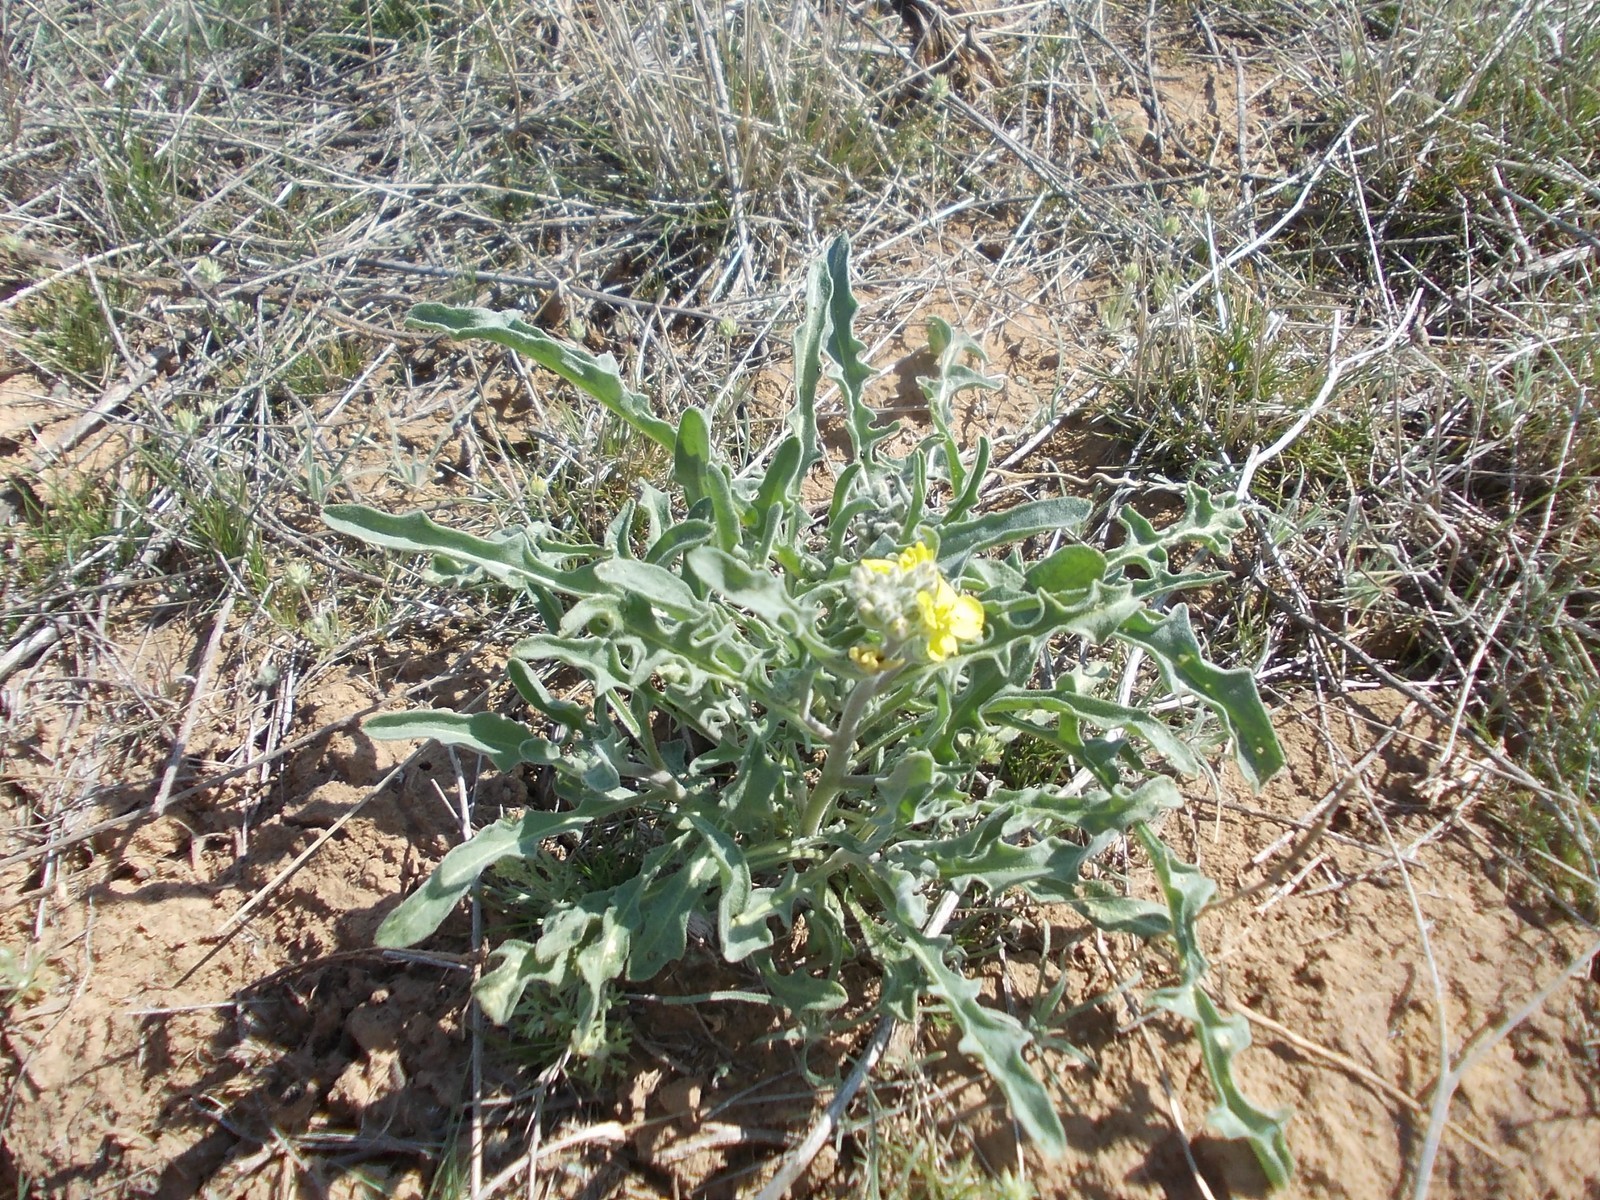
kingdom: Plantae
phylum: Tracheophyta
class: Magnoliopsida
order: Brassicales
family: Brassicaceae
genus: Sterigmostemum
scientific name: Sterigmostemum caspicum
